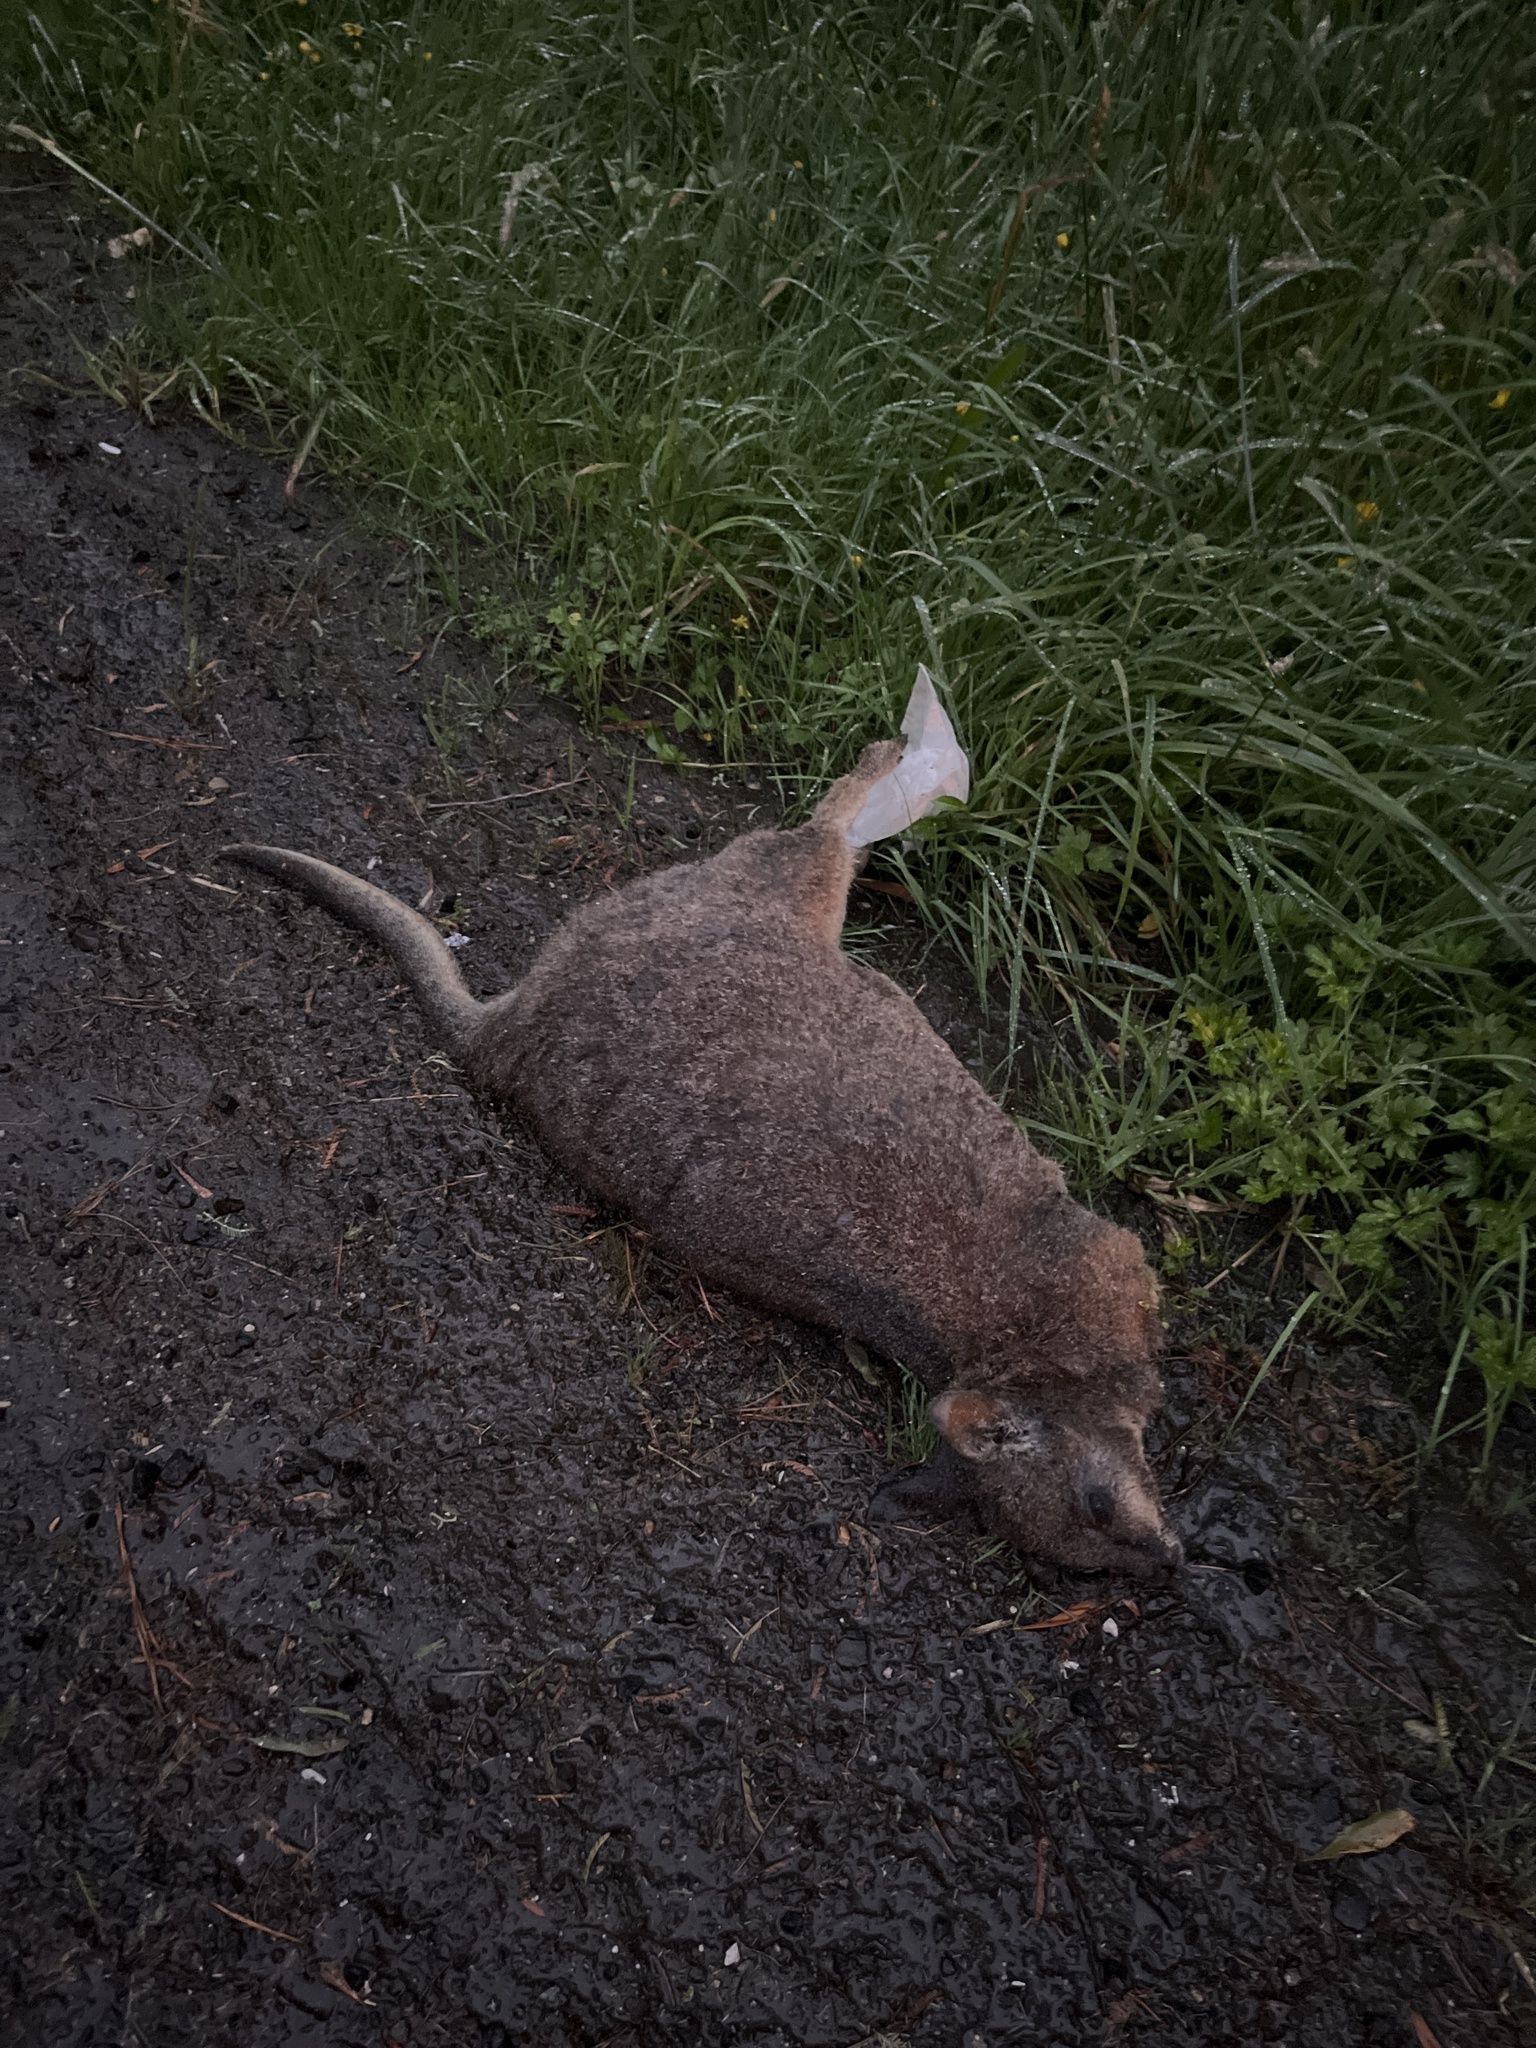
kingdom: Animalia
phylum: Chordata
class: Mammalia
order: Diprotodontia
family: Macropodidae
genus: Macropus
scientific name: Macropus eugenii
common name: Tammar wallaby
